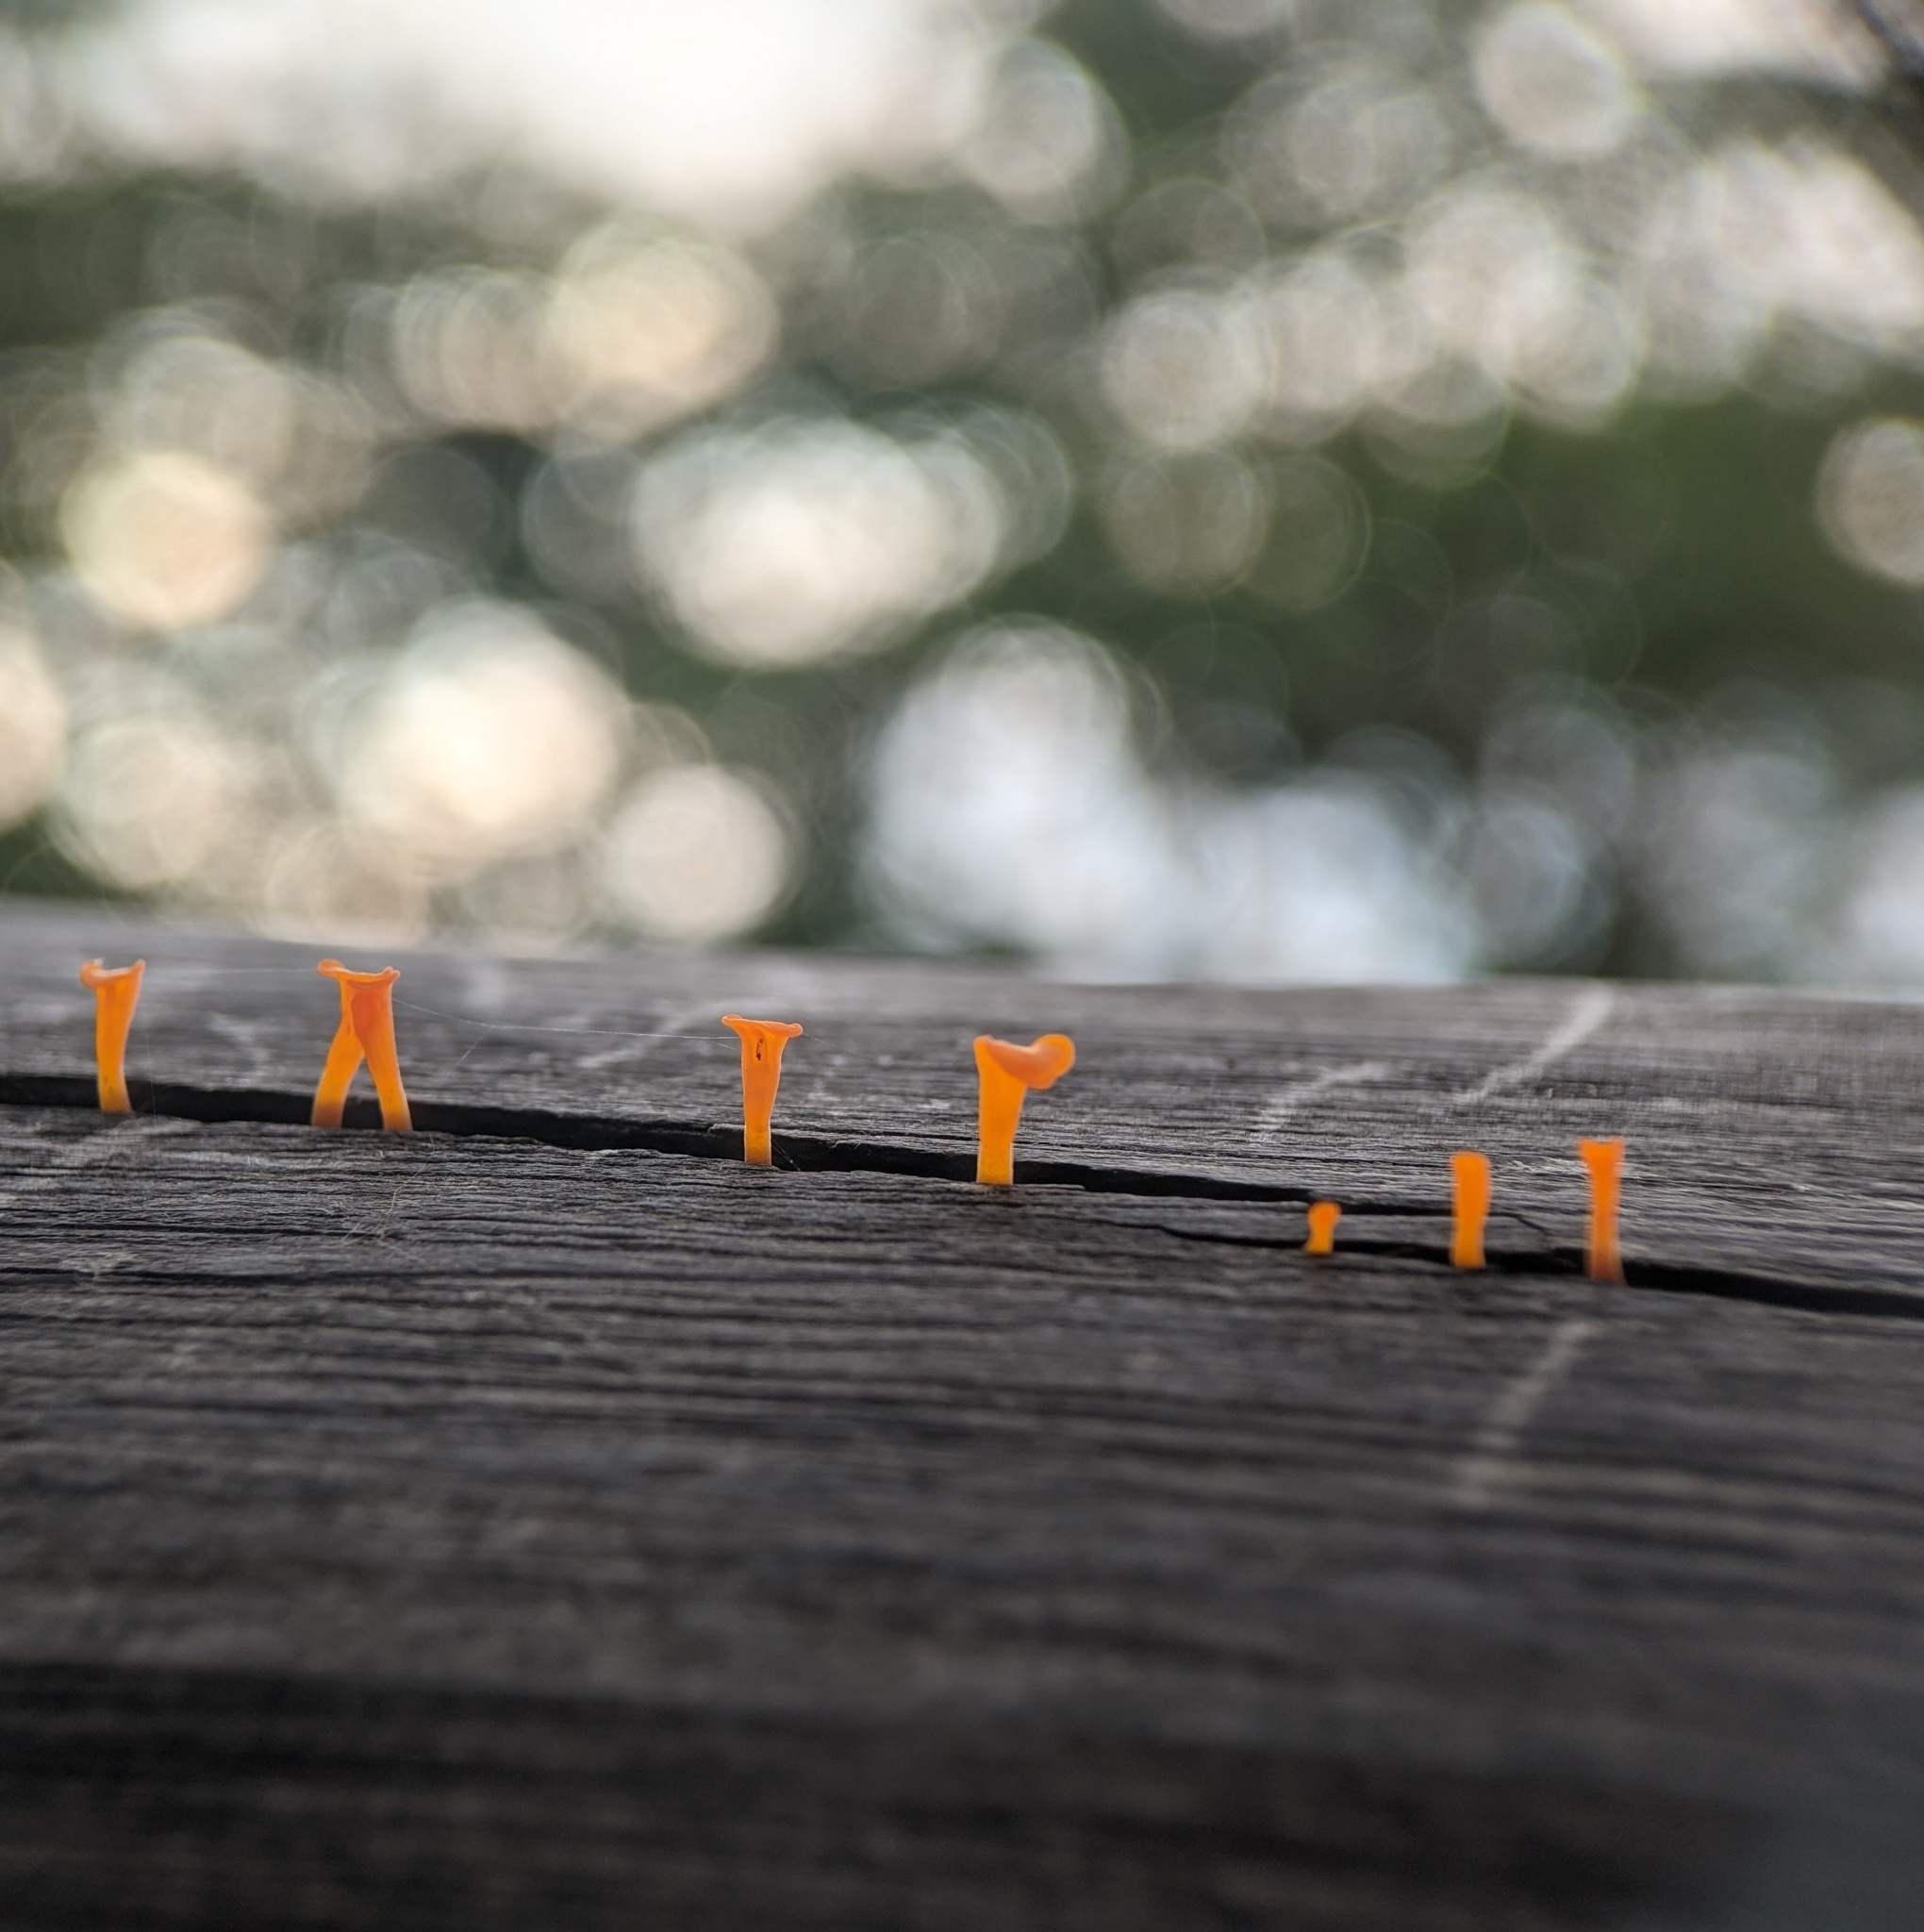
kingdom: Fungi
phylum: Basidiomycota
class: Dacrymycetes
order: Dacrymycetales
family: Dacrymycetaceae
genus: Dacrymyces
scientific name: Dacrymyces spathularius
